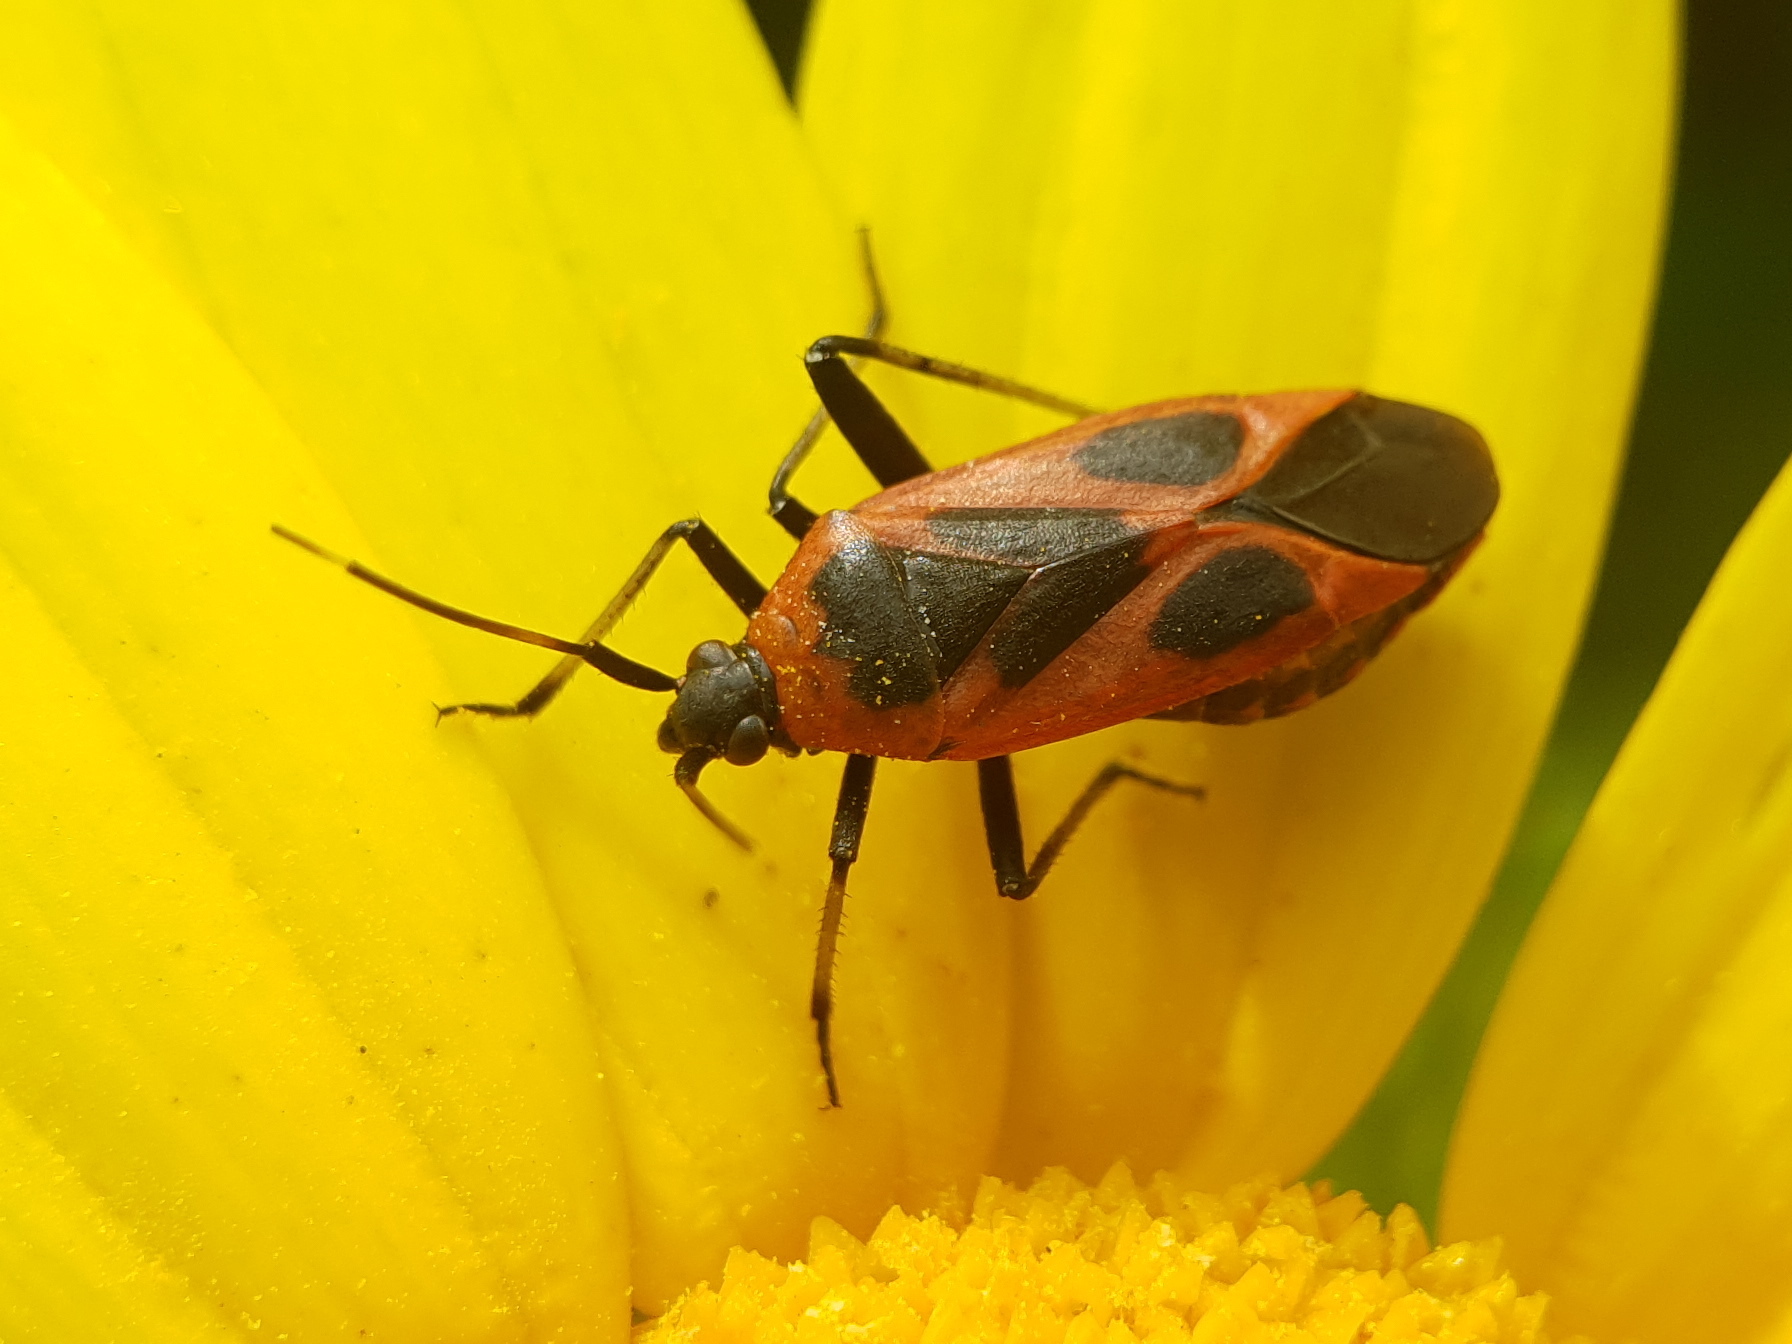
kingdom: Animalia
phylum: Arthropoda
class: Insecta
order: Hemiptera
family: Miridae
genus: Calocoris
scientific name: Calocoris nemoralis
